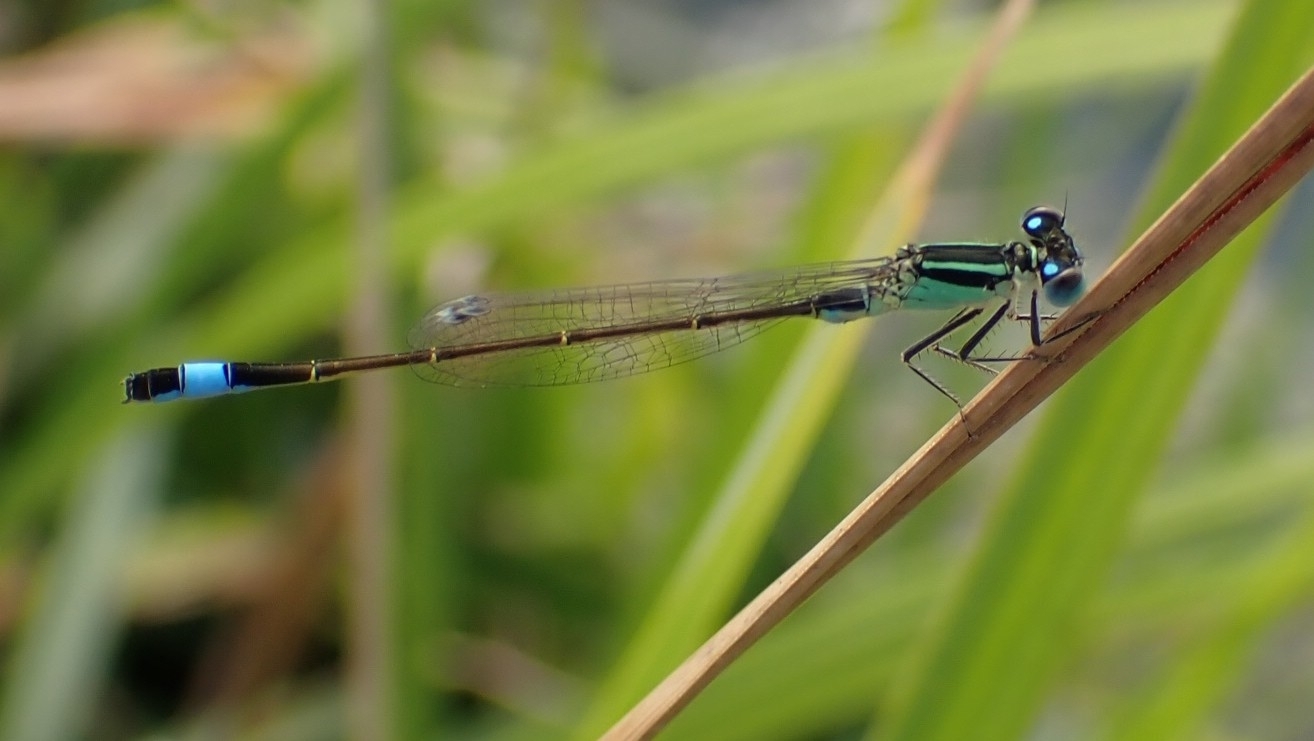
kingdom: Animalia
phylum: Arthropoda
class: Insecta
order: Odonata
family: Coenagrionidae
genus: Ischnura
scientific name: Ischnura elegans
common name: Blue-tailed damselfly
